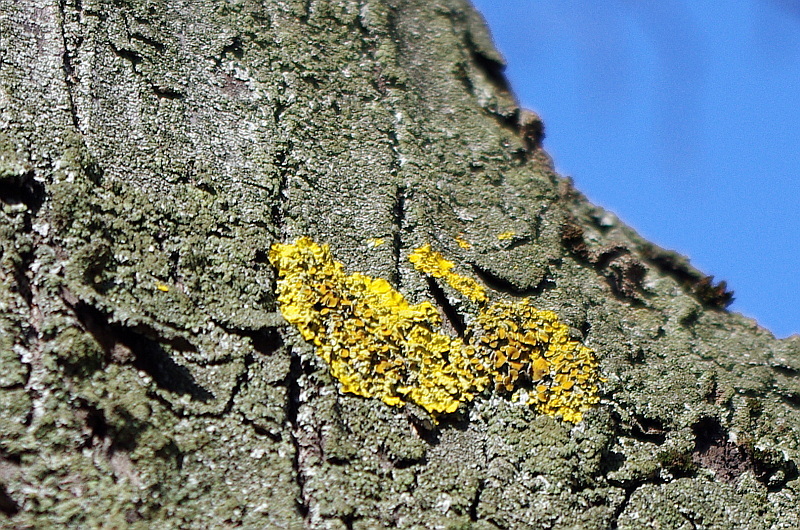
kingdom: Fungi
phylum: Ascomycota
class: Lecanoromycetes
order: Teloschistales
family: Teloschistaceae
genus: Xanthoria
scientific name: Xanthoria parietina
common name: Common orange lichen
